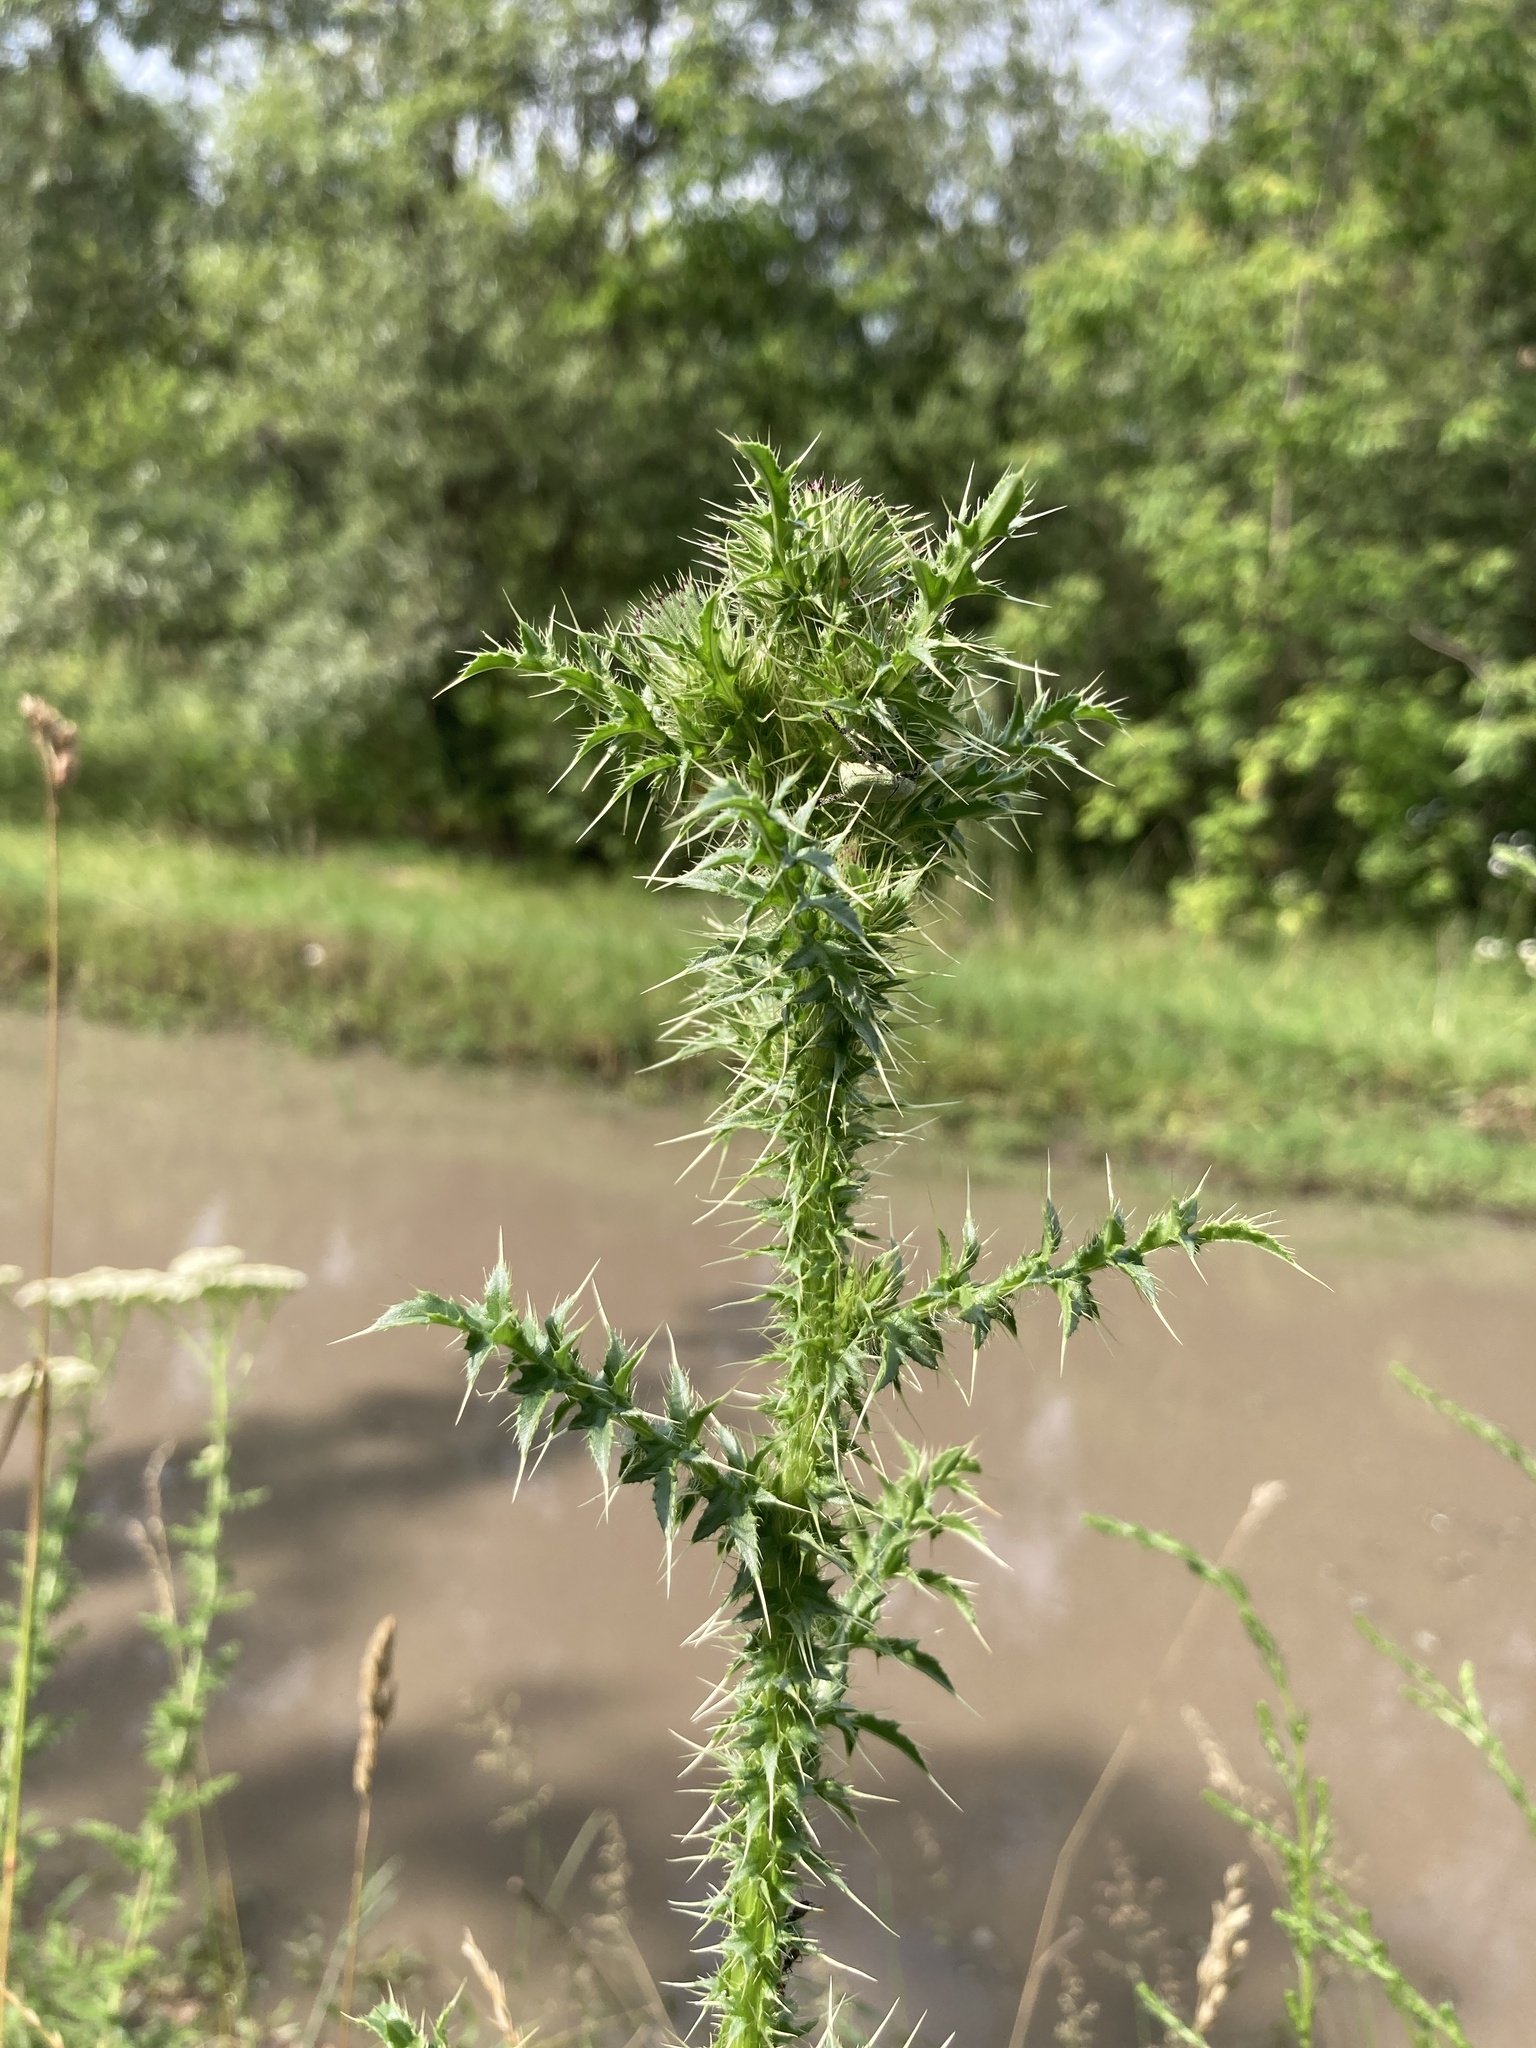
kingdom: Plantae
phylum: Tracheophyta
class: Magnoliopsida
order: Asterales
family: Asteraceae
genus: Carduus
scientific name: Carduus acanthoides
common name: Plumeless thistle
